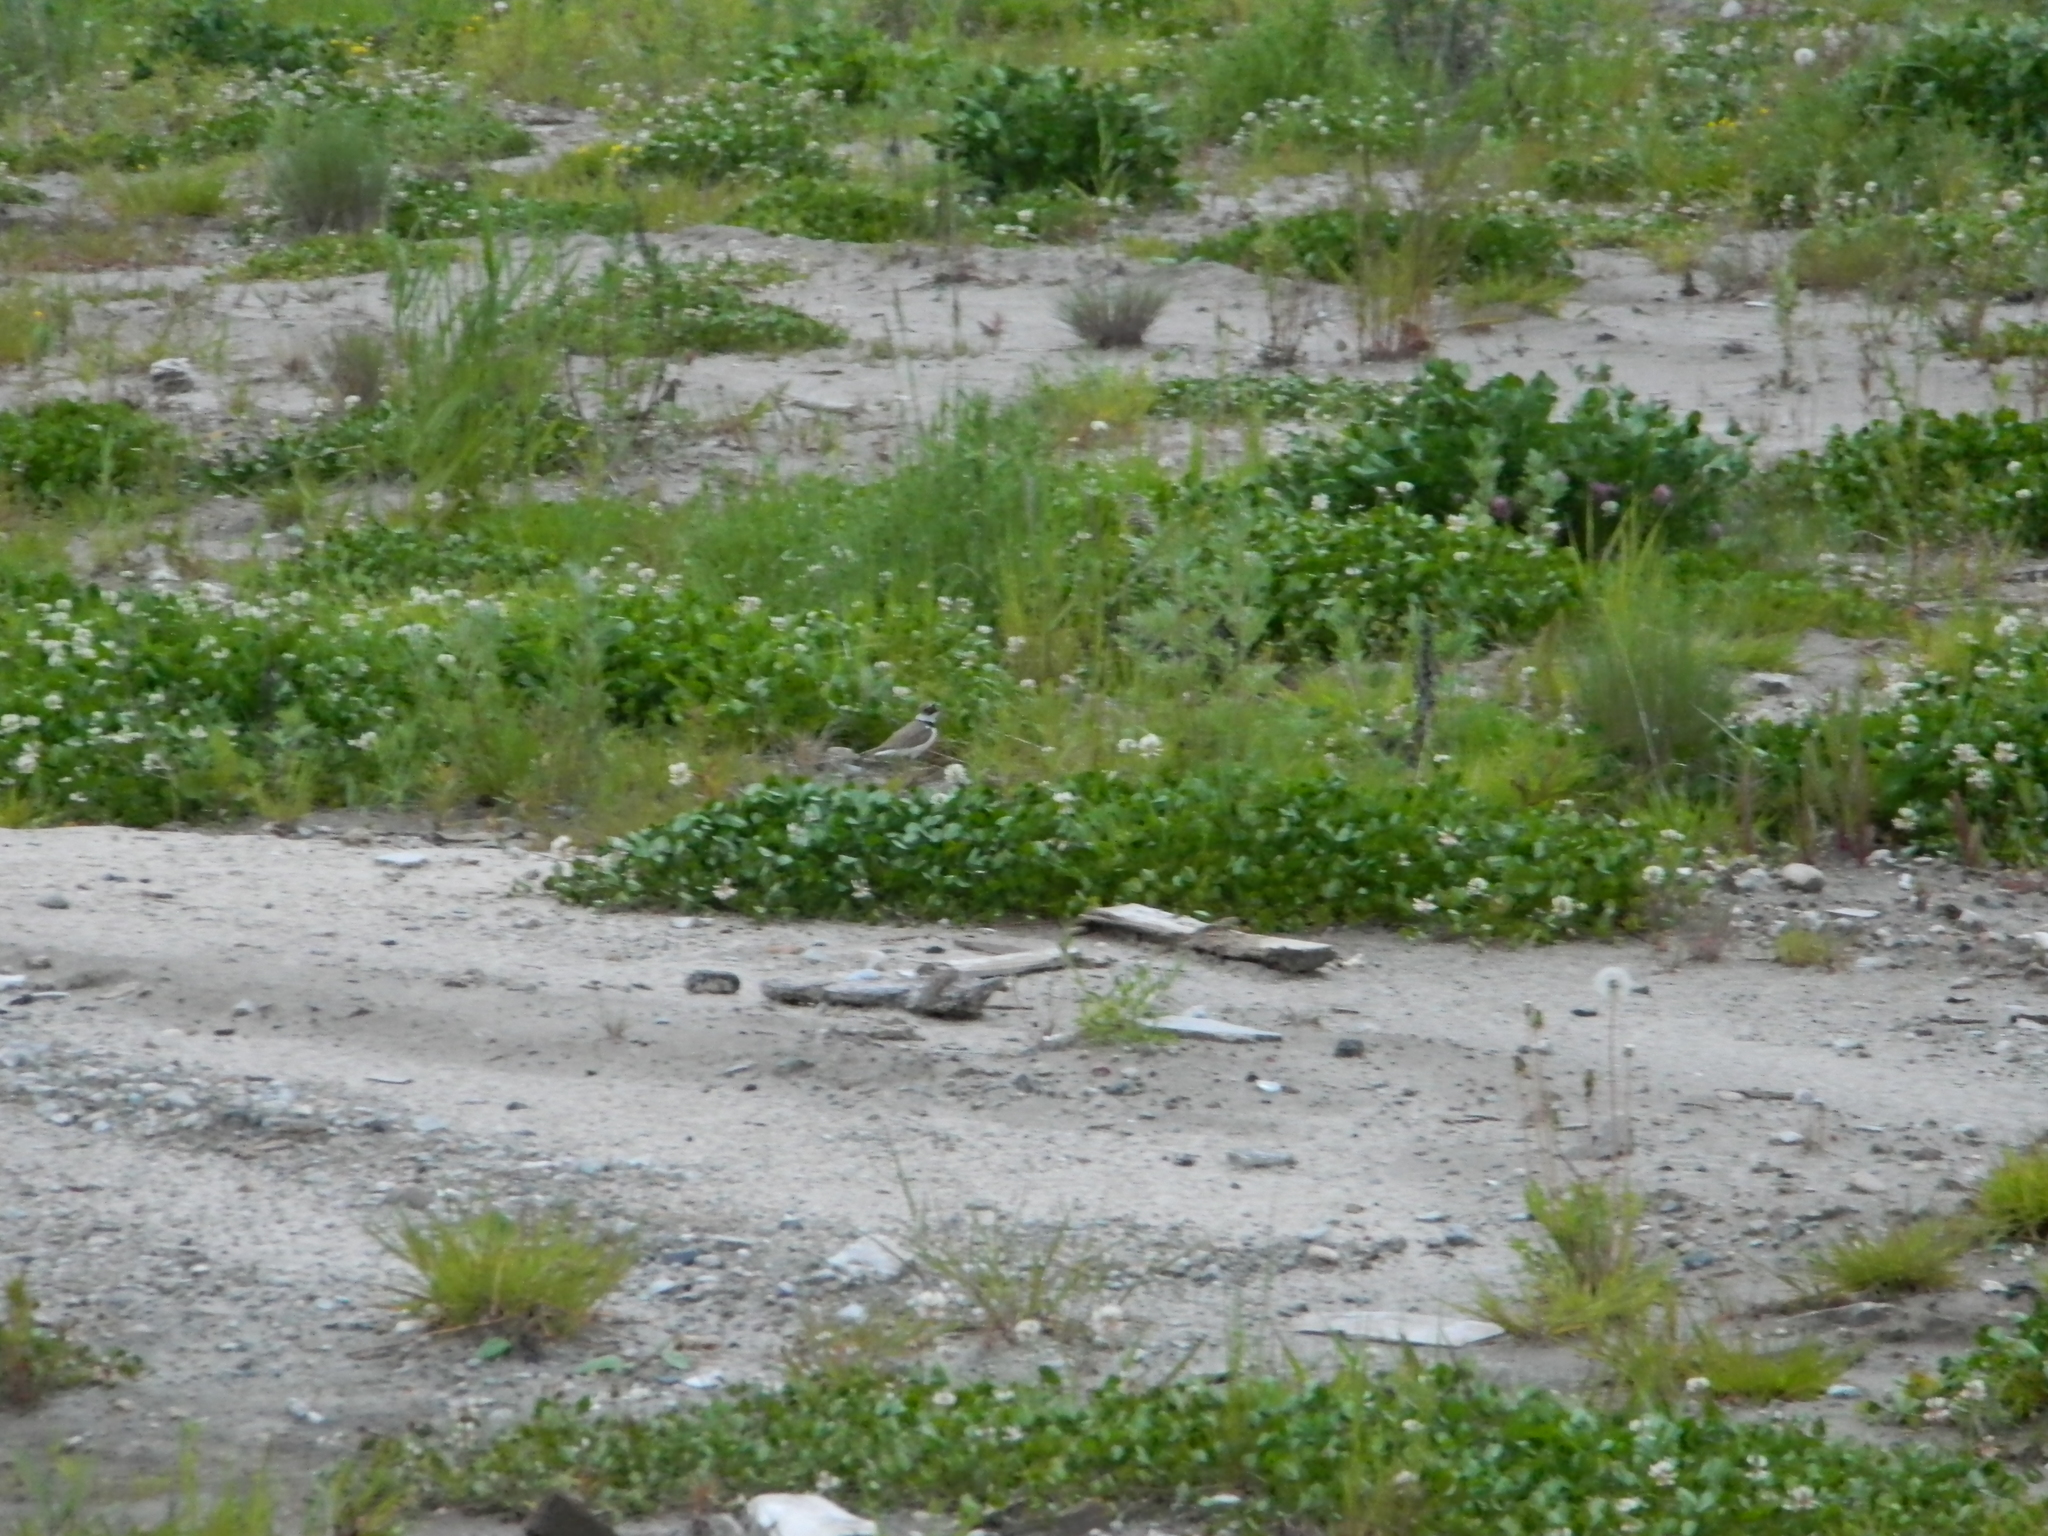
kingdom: Animalia
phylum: Chordata
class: Aves
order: Charadriiformes
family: Charadriidae
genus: Charadrius
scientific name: Charadrius dubius
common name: Little ringed plover
